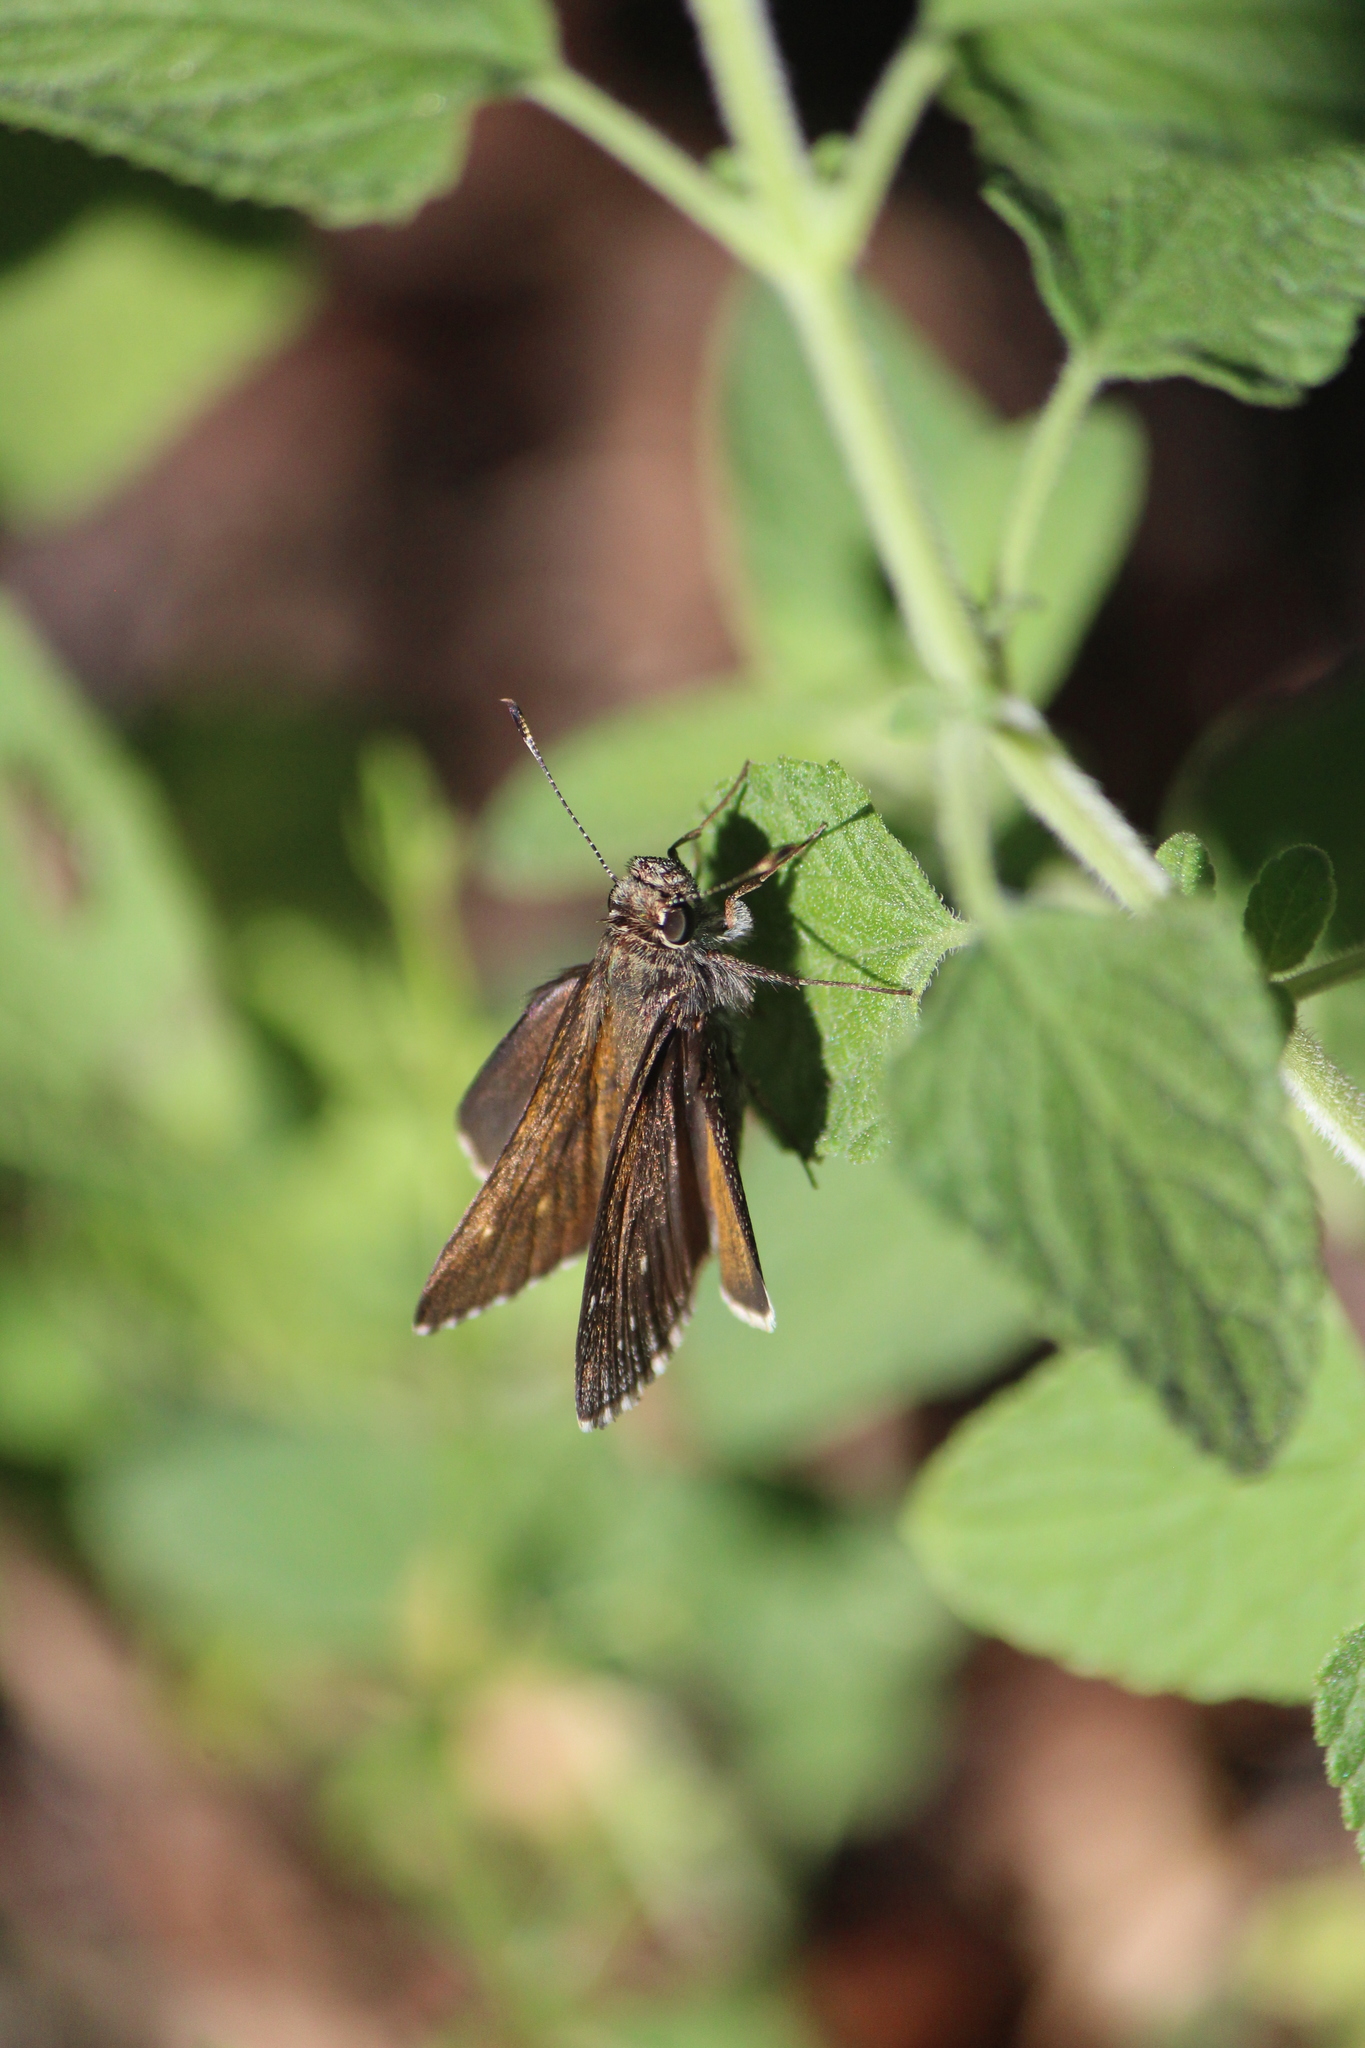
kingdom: Animalia
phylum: Arthropoda
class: Insecta
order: Lepidoptera
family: Hesperiidae
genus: Mastor
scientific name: Mastor exoteria
